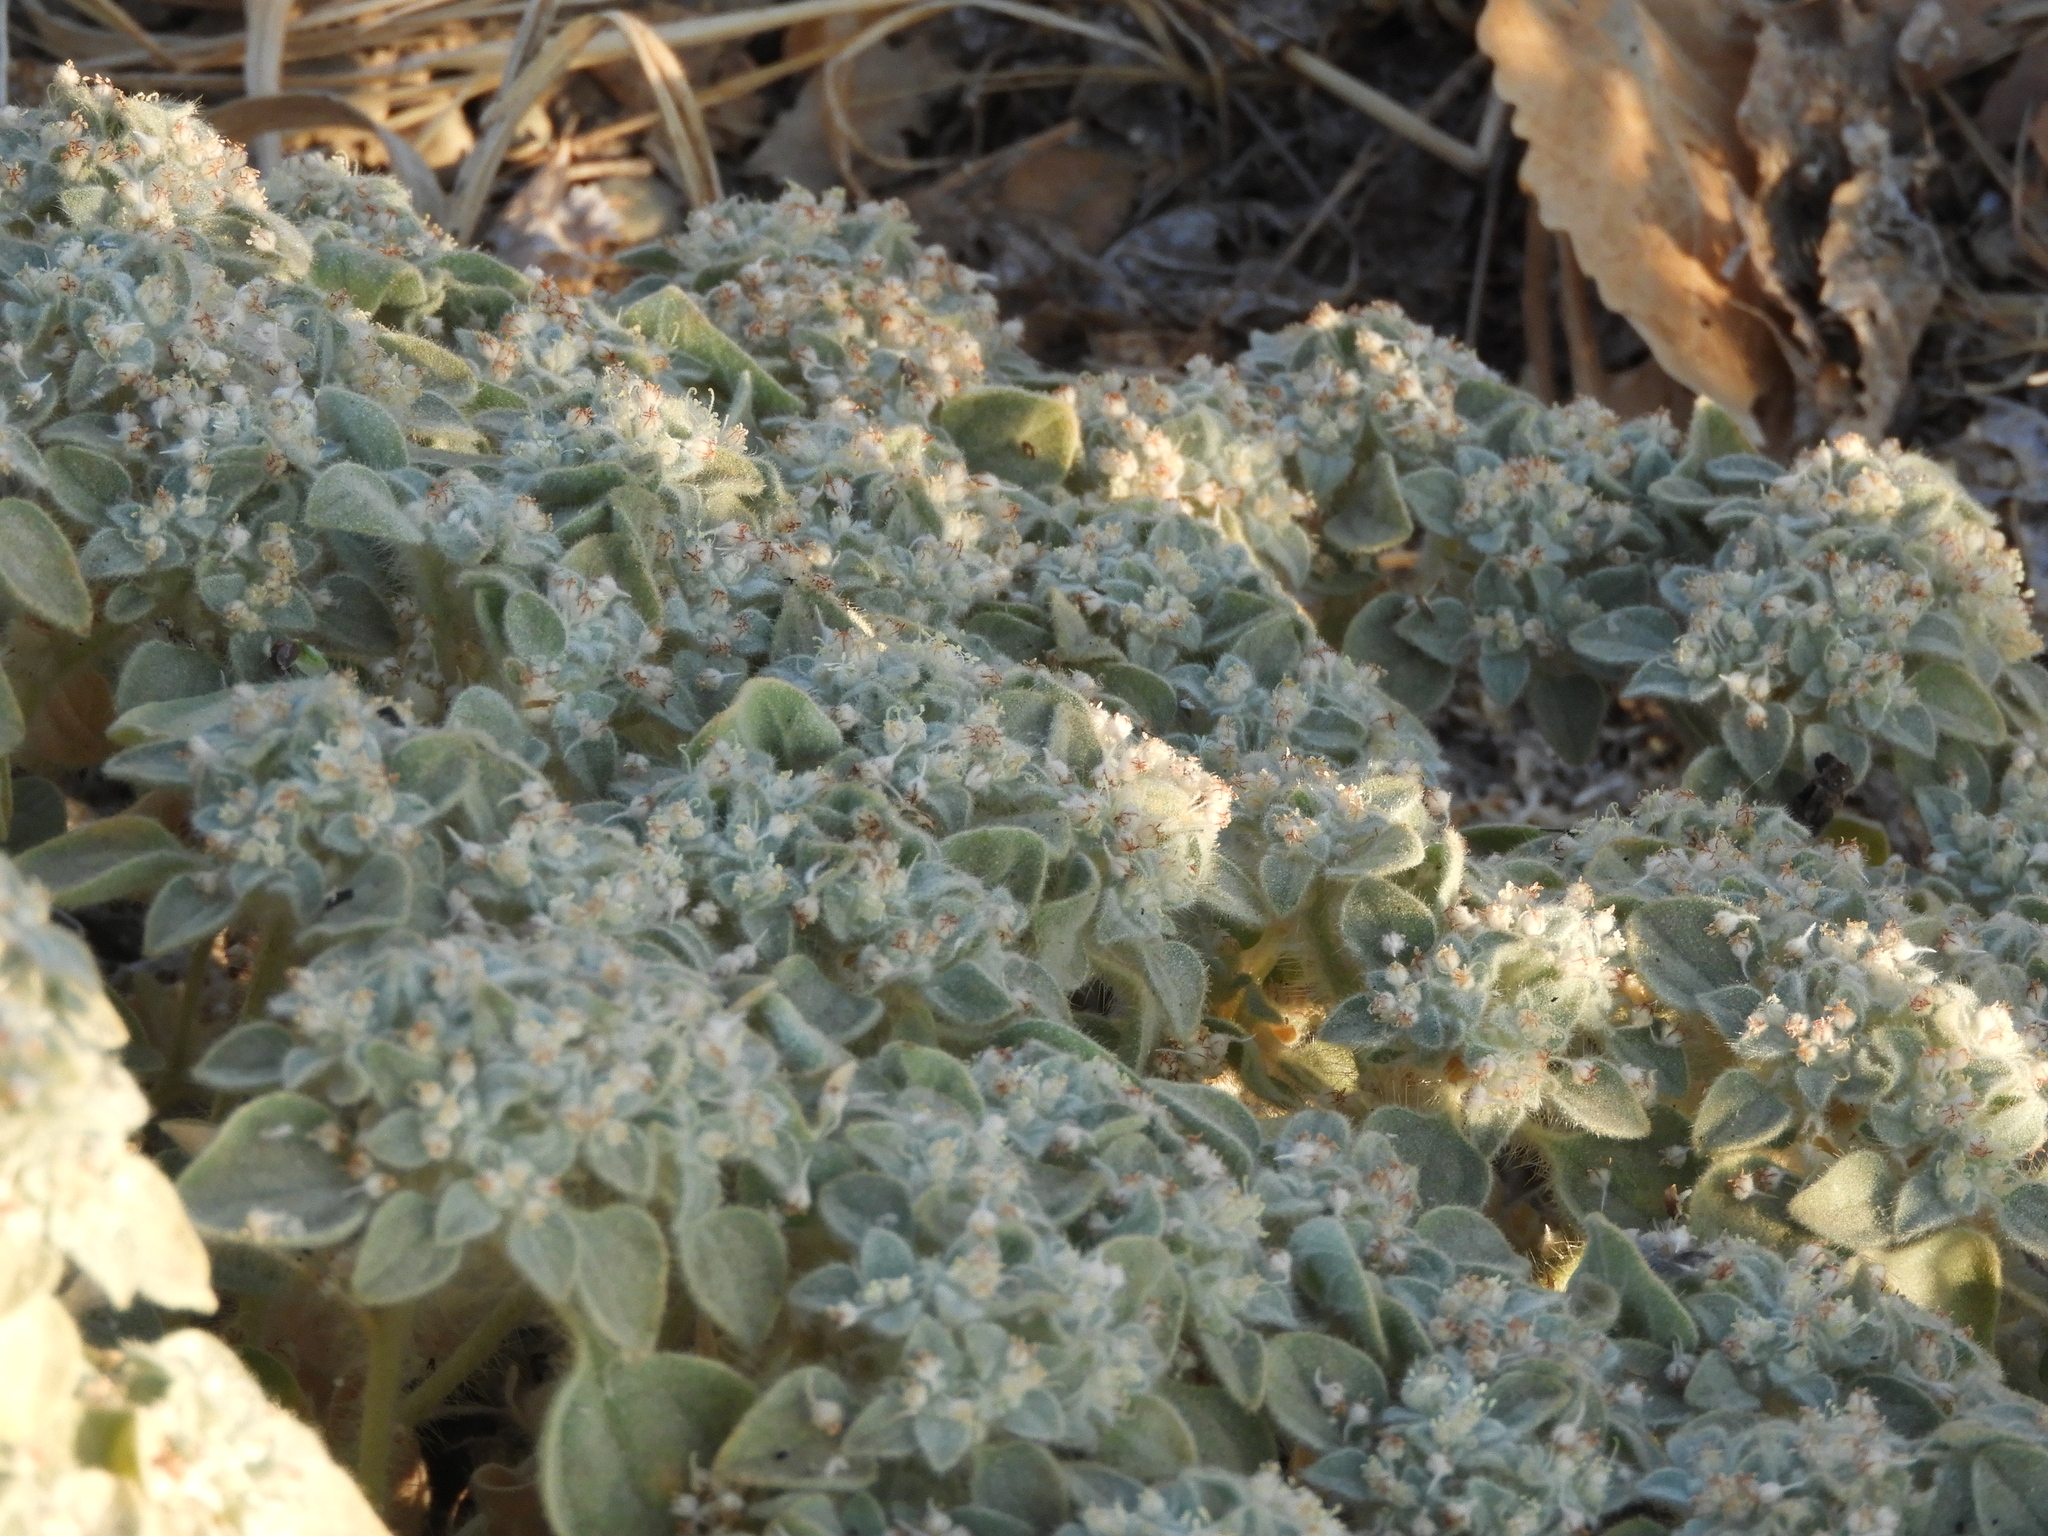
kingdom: Plantae
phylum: Tracheophyta
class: Magnoliopsida
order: Malpighiales
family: Euphorbiaceae
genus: Croton
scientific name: Croton setiger
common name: Dove weed
